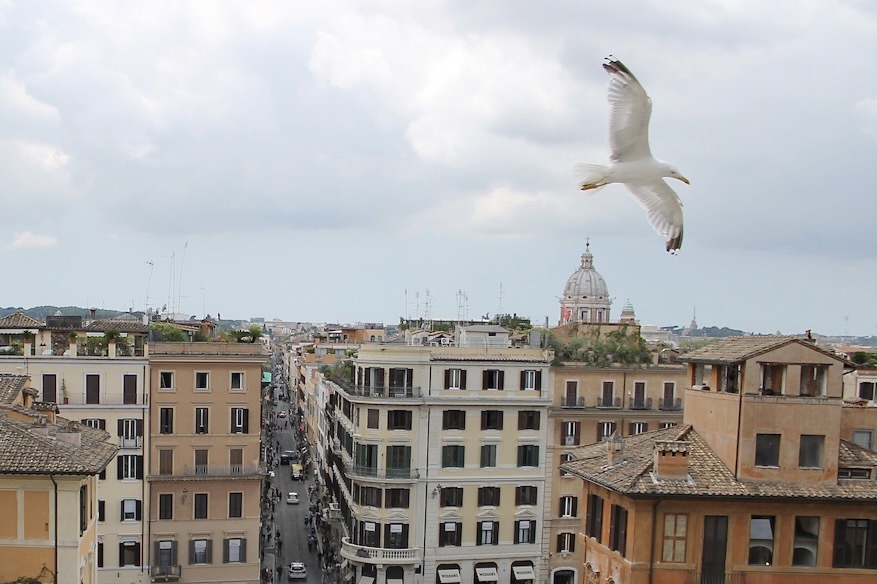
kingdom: Animalia
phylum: Chordata
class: Aves
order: Charadriiformes
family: Laridae
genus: Larus
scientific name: Larus michahellis
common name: Yellow-legged gull
